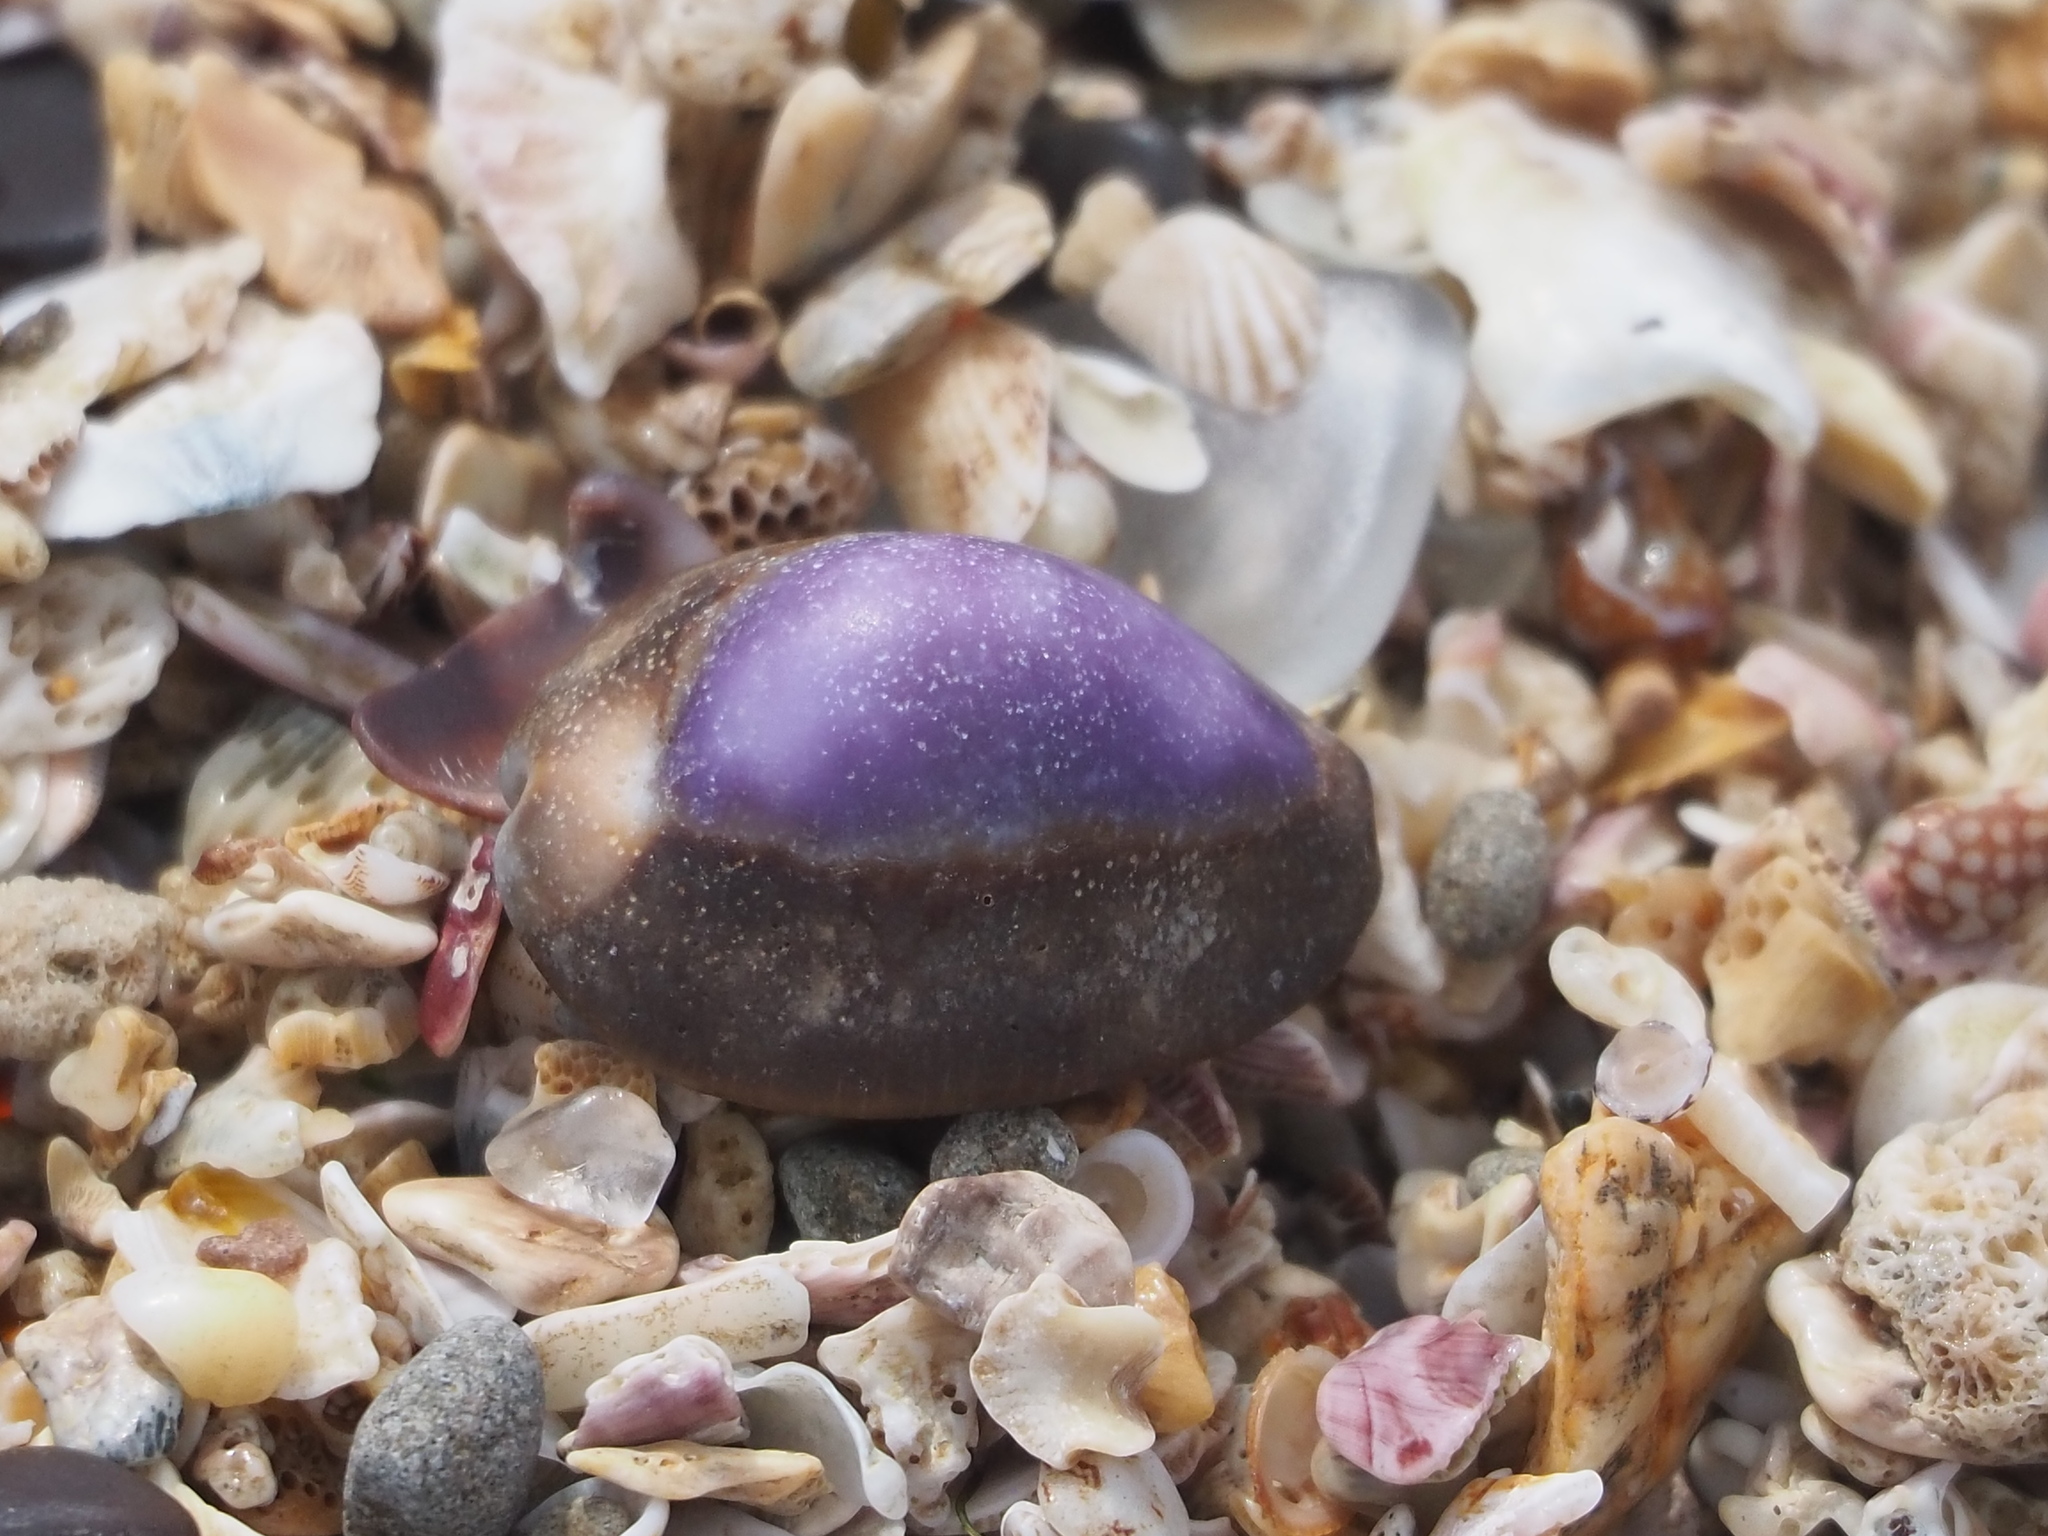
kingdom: Animalia
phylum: Mollusca
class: Gastropoda
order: Littorinimorpha
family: Cypraeidae
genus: Monetaria
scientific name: Monetaria caputserpentis
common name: Serpent's head cowrie
